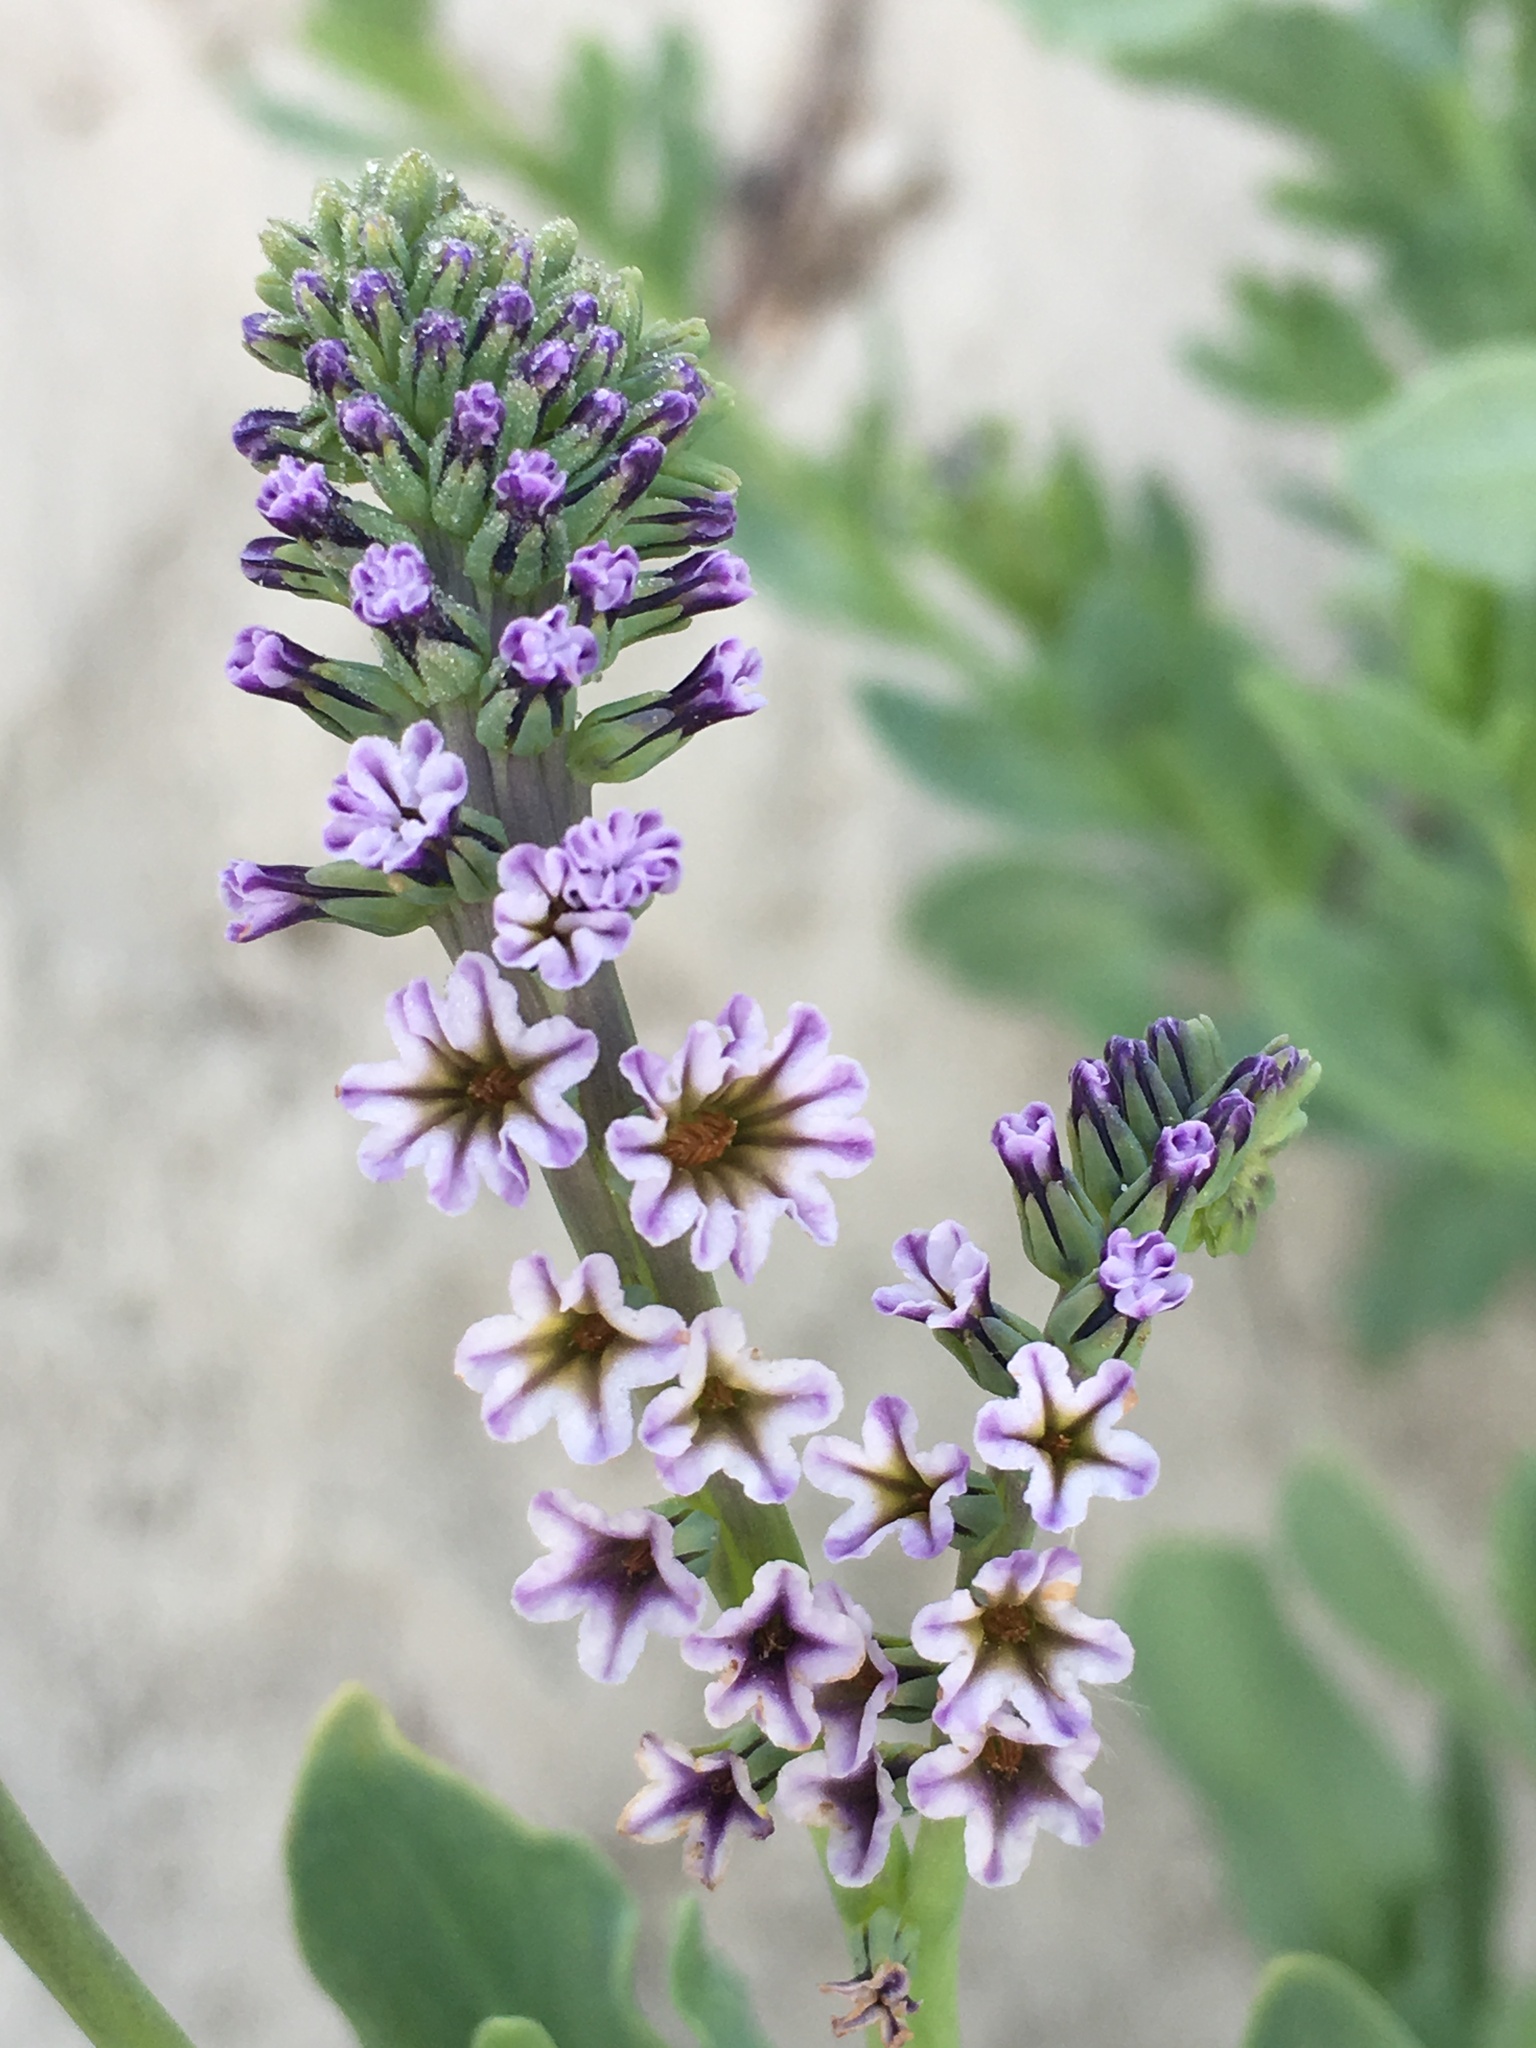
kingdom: Plantae
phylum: Tracheophyta
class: Magnoliopsida
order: Boraginales
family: Heliotropiaceae
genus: Heliotropium
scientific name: Heliotropium curassavicum
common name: Seaside heliotrope
